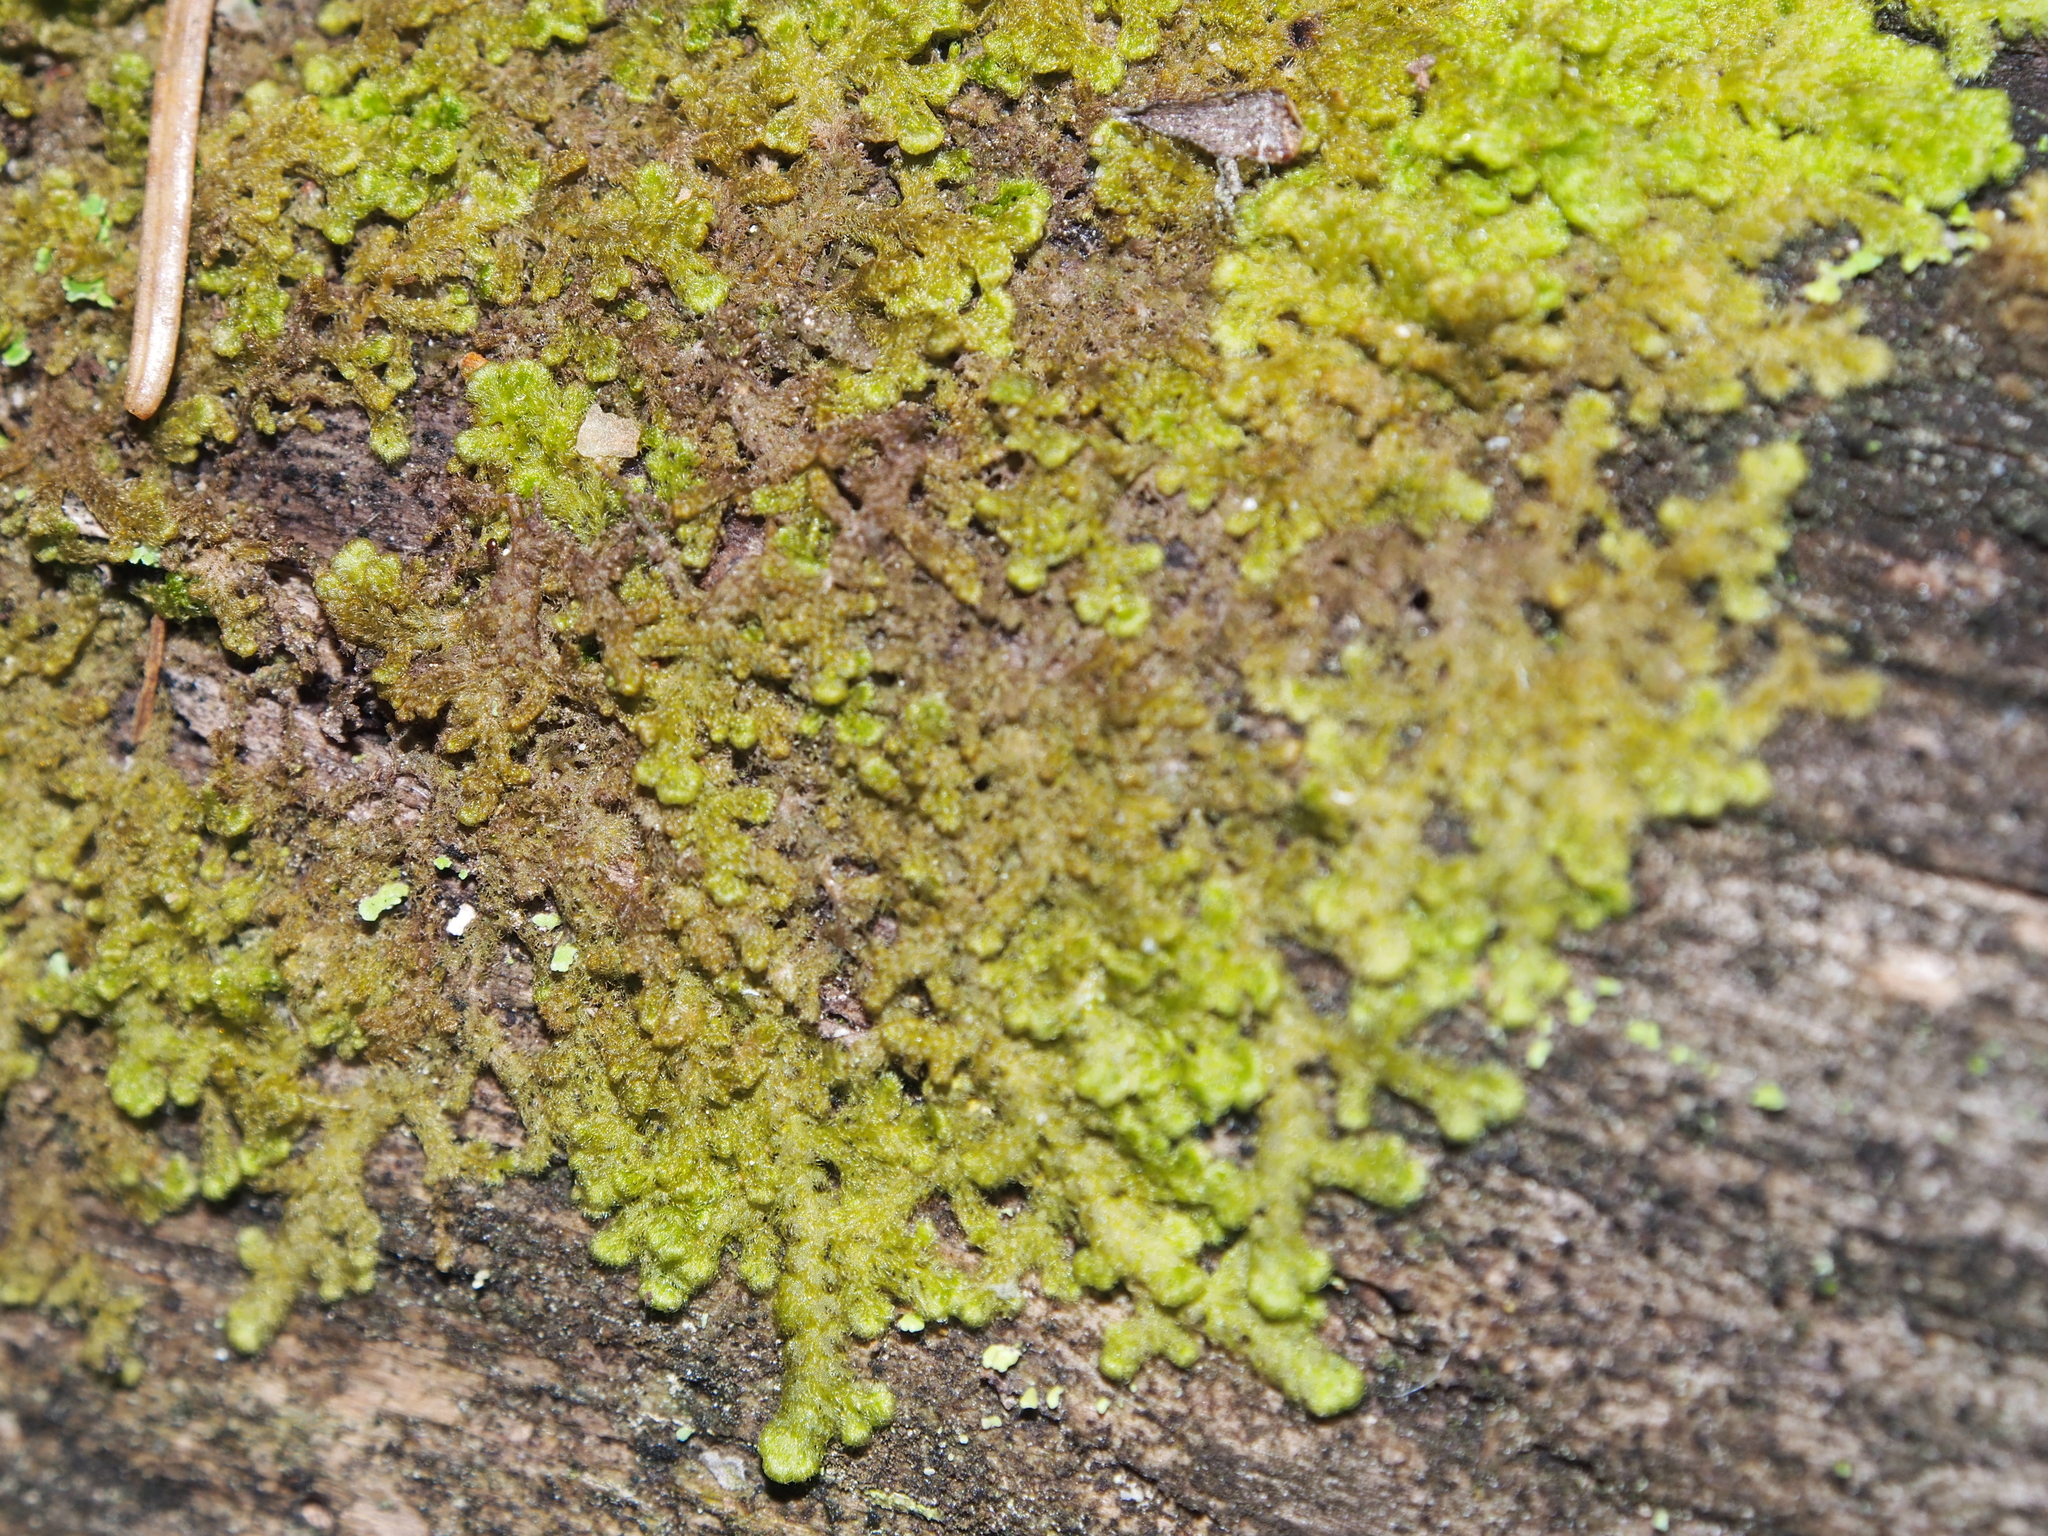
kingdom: Plantae
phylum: Marchantiophyta
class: Jungermanniopsida
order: Ptilidiales
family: Ptilidiaceae
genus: Ptilidium
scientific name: Ptilidium pulcherrimum
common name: Tree fringewort
